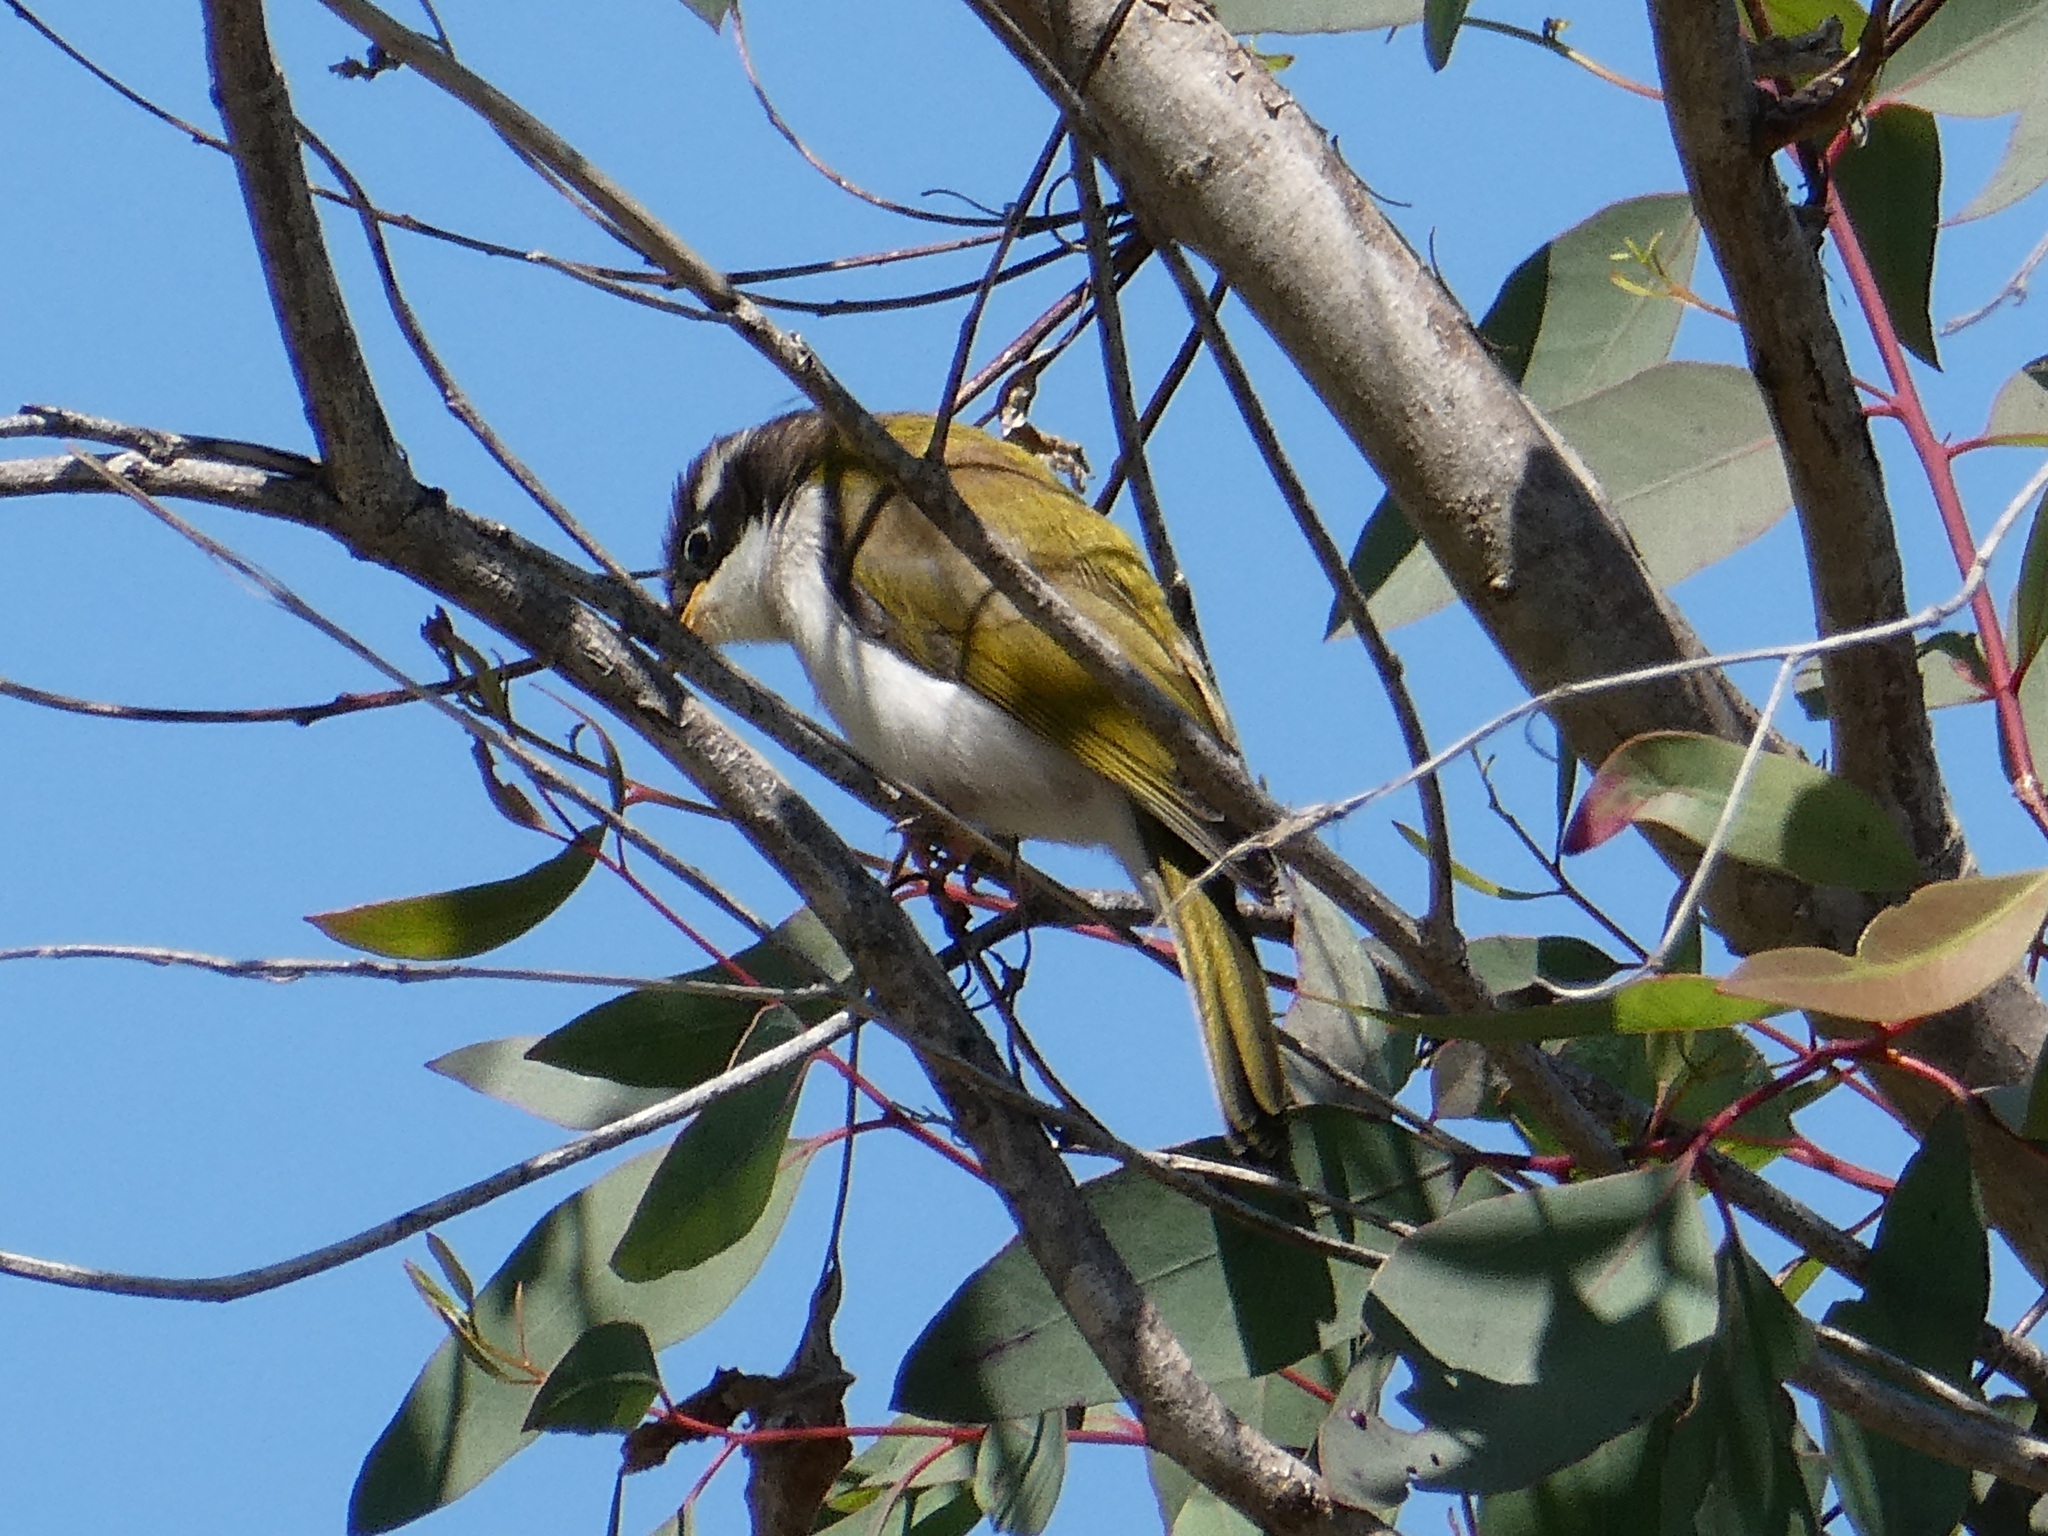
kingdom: Animalia
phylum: Chordata
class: Aves
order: Passeriformes
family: Meliphagidae
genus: Melithreptus
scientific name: Melithreptus albogularis
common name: White-throated honeyeater
